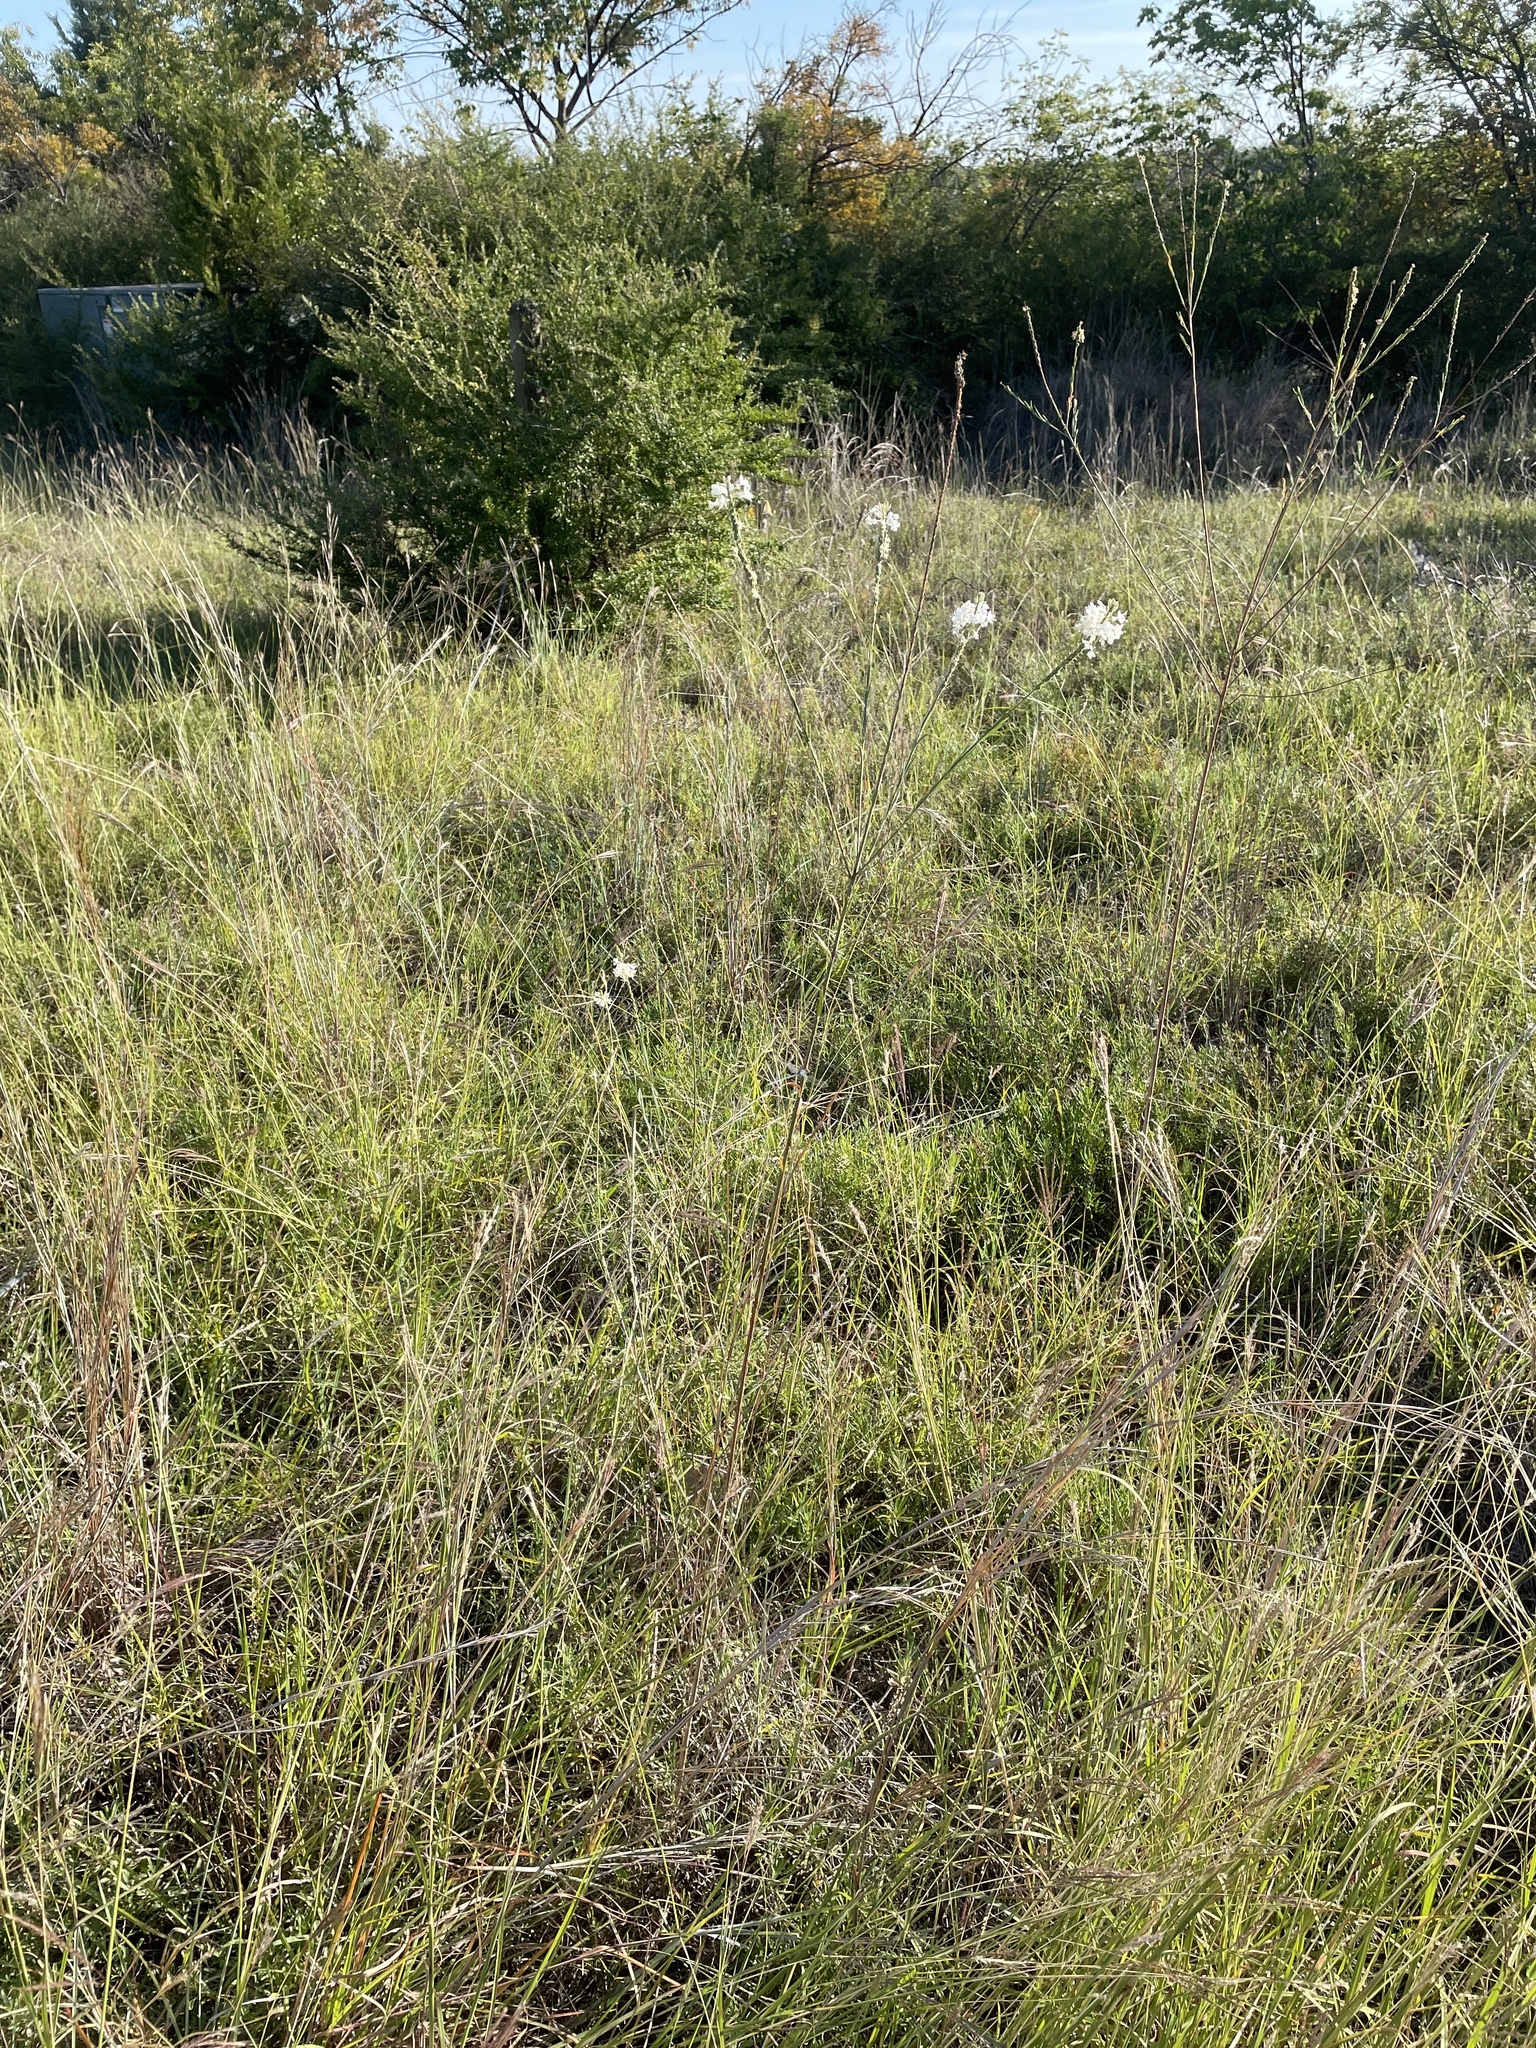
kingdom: Plantae
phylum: Tracheophyta
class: Magnoliopsida
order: Myrtales
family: Onagraceae
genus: Oenothera
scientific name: Oenothera glaucifolia
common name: False gaura
